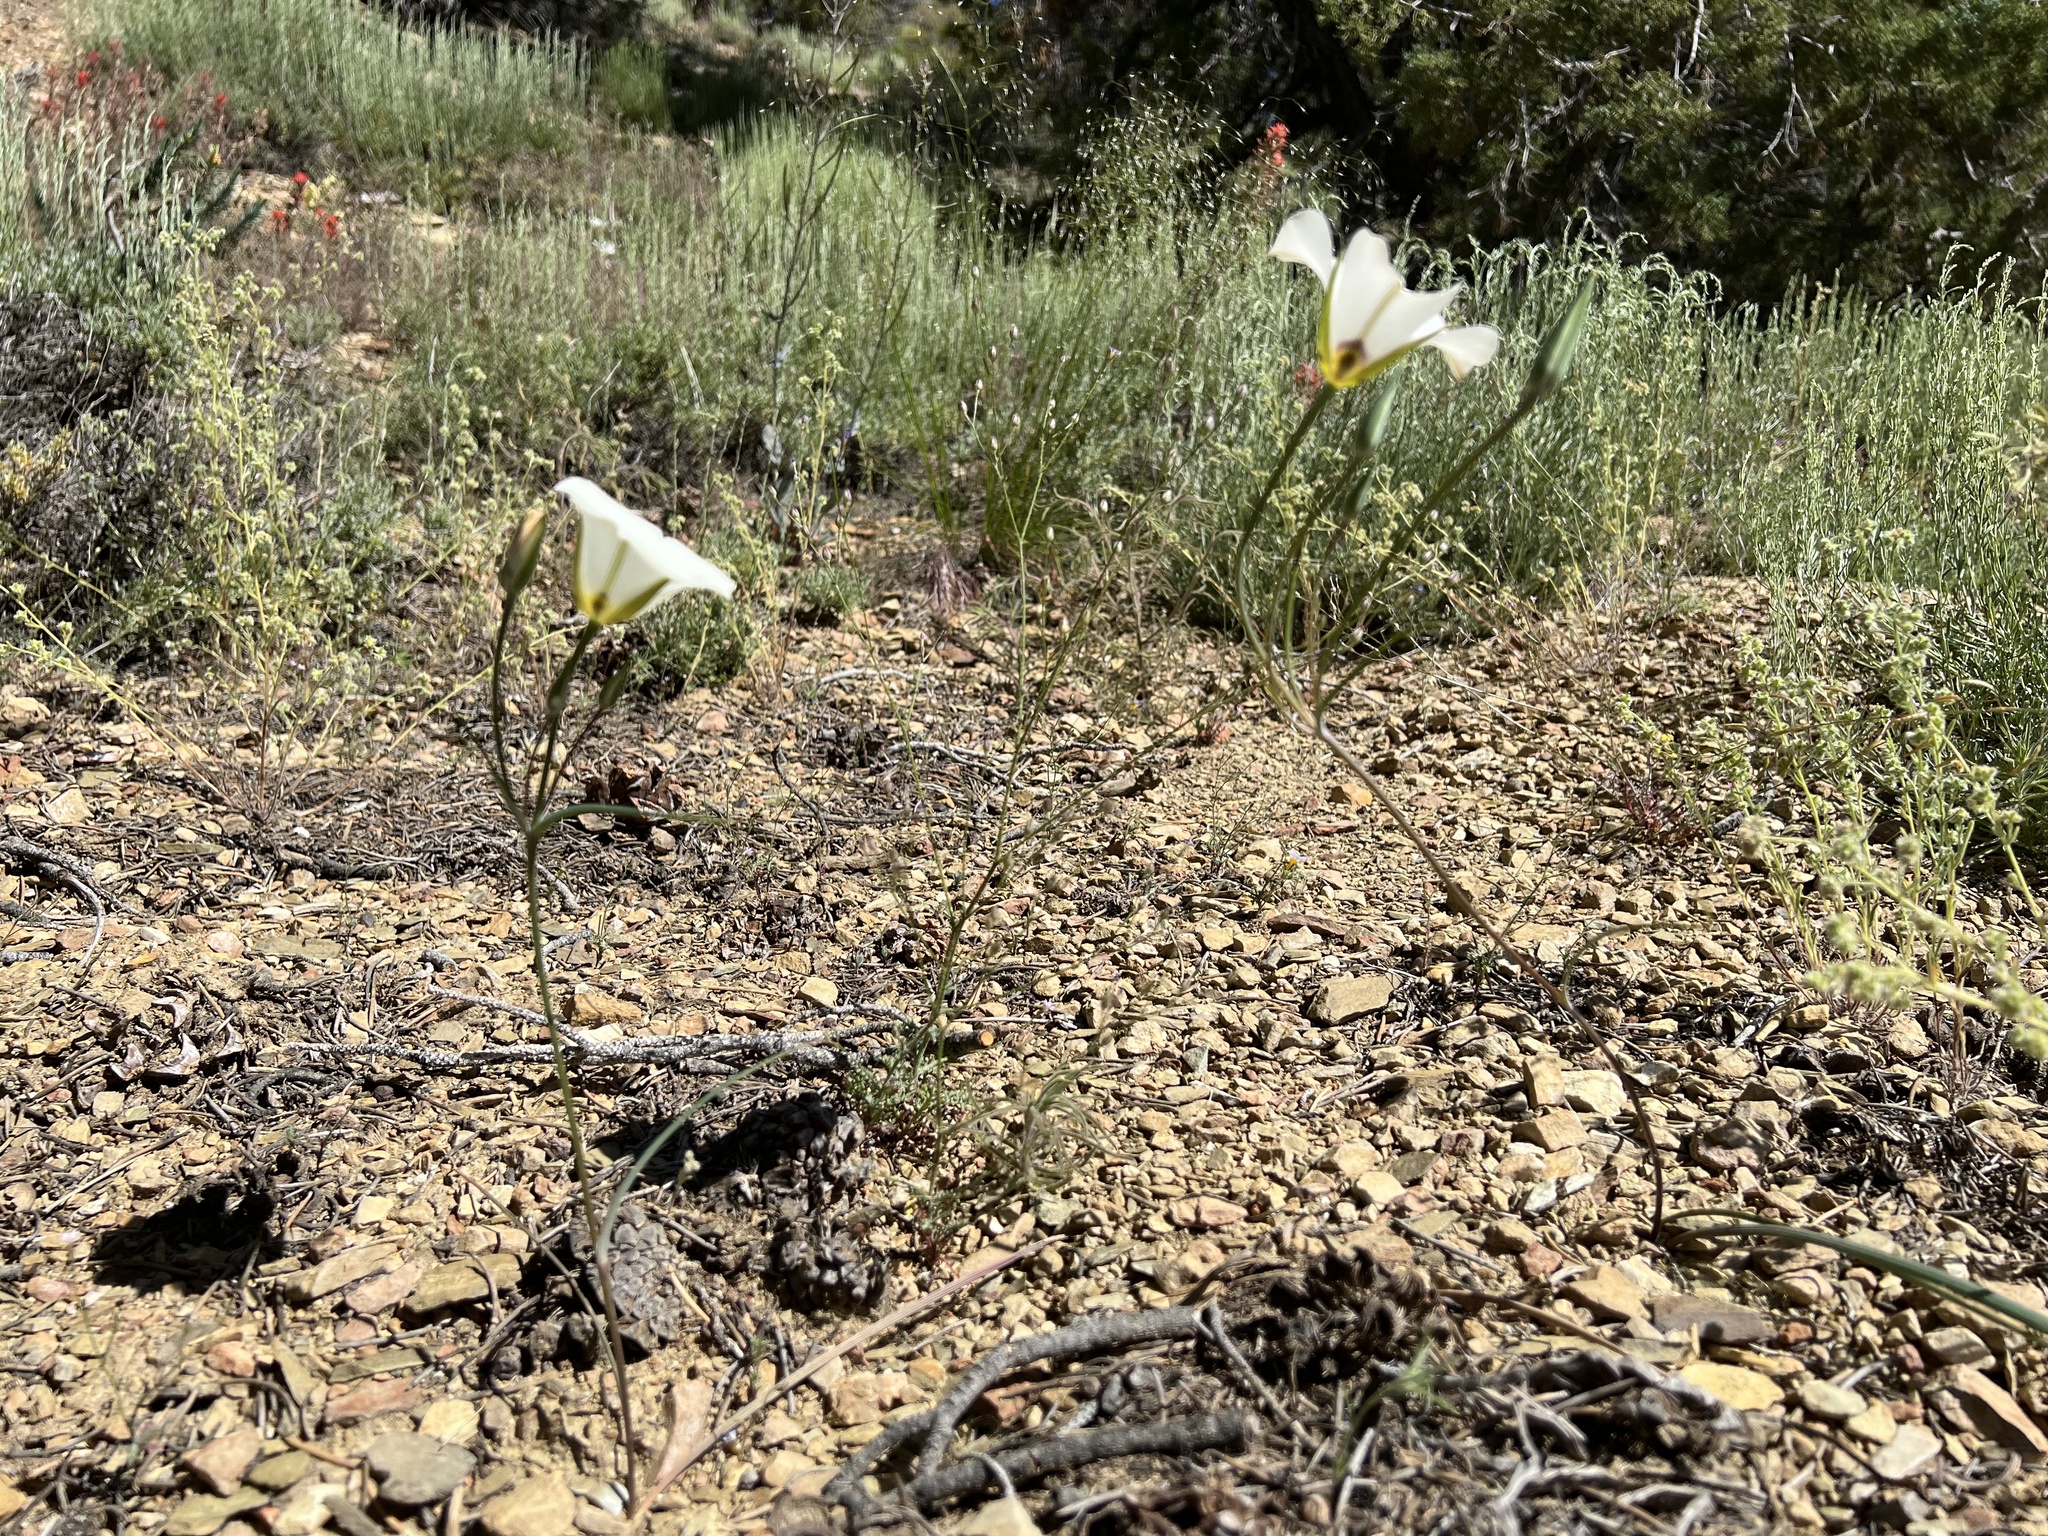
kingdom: Plantae
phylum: Tracheophyta
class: Liliopsida
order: Liliales
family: Liliaceae
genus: Calochortus
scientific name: Calochortus bruneaunis
